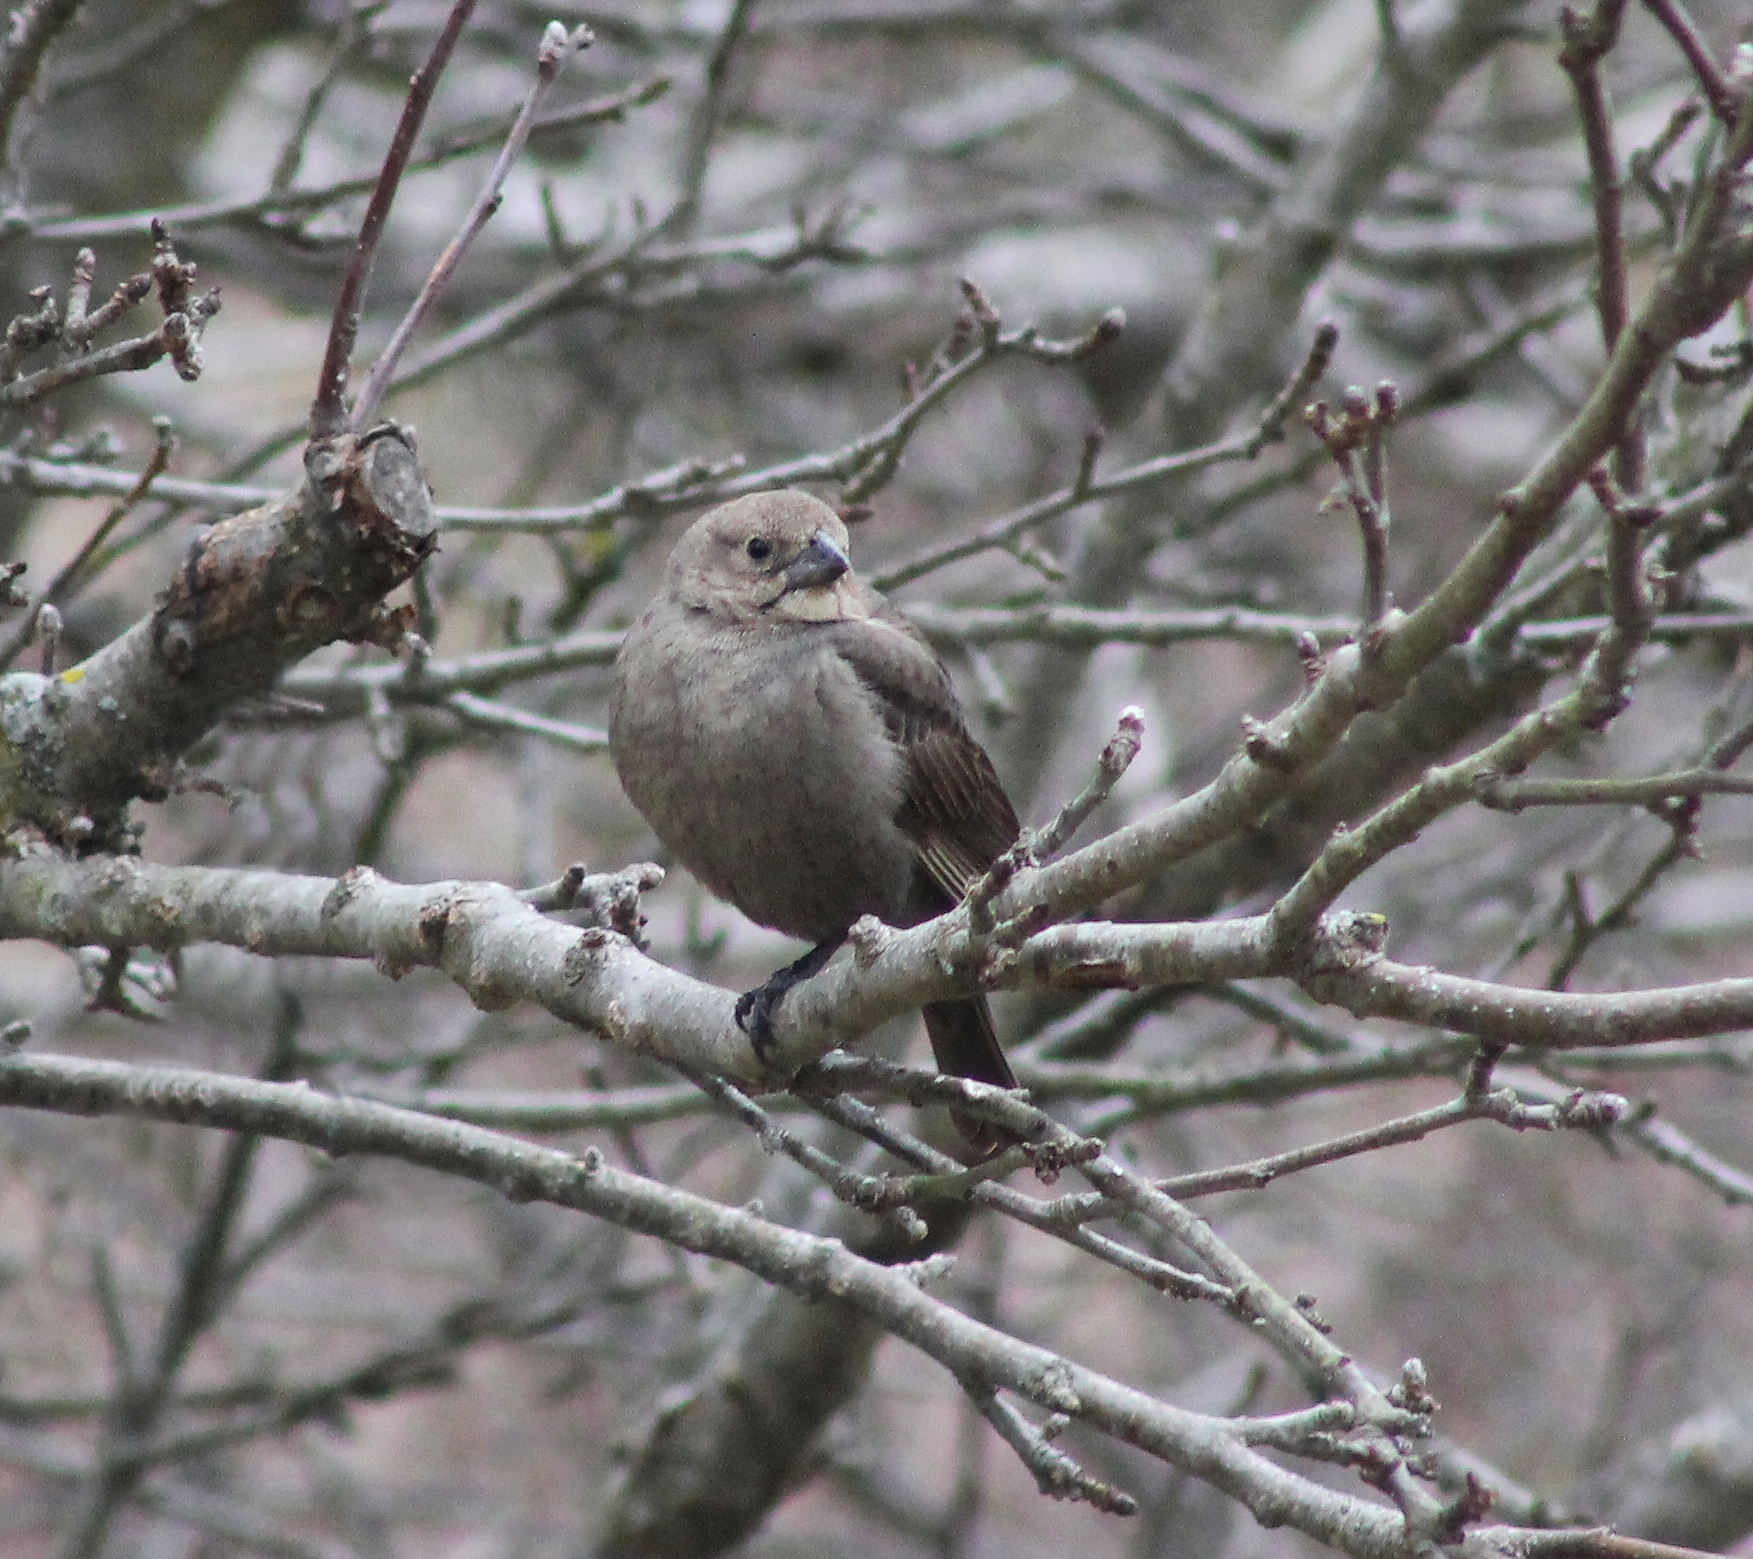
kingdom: Animalia
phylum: Chordata
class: Aves
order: Passeriformes
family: Icteridae
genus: Molothrus
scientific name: Molothrus ater
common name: Brown-headed cowbird
